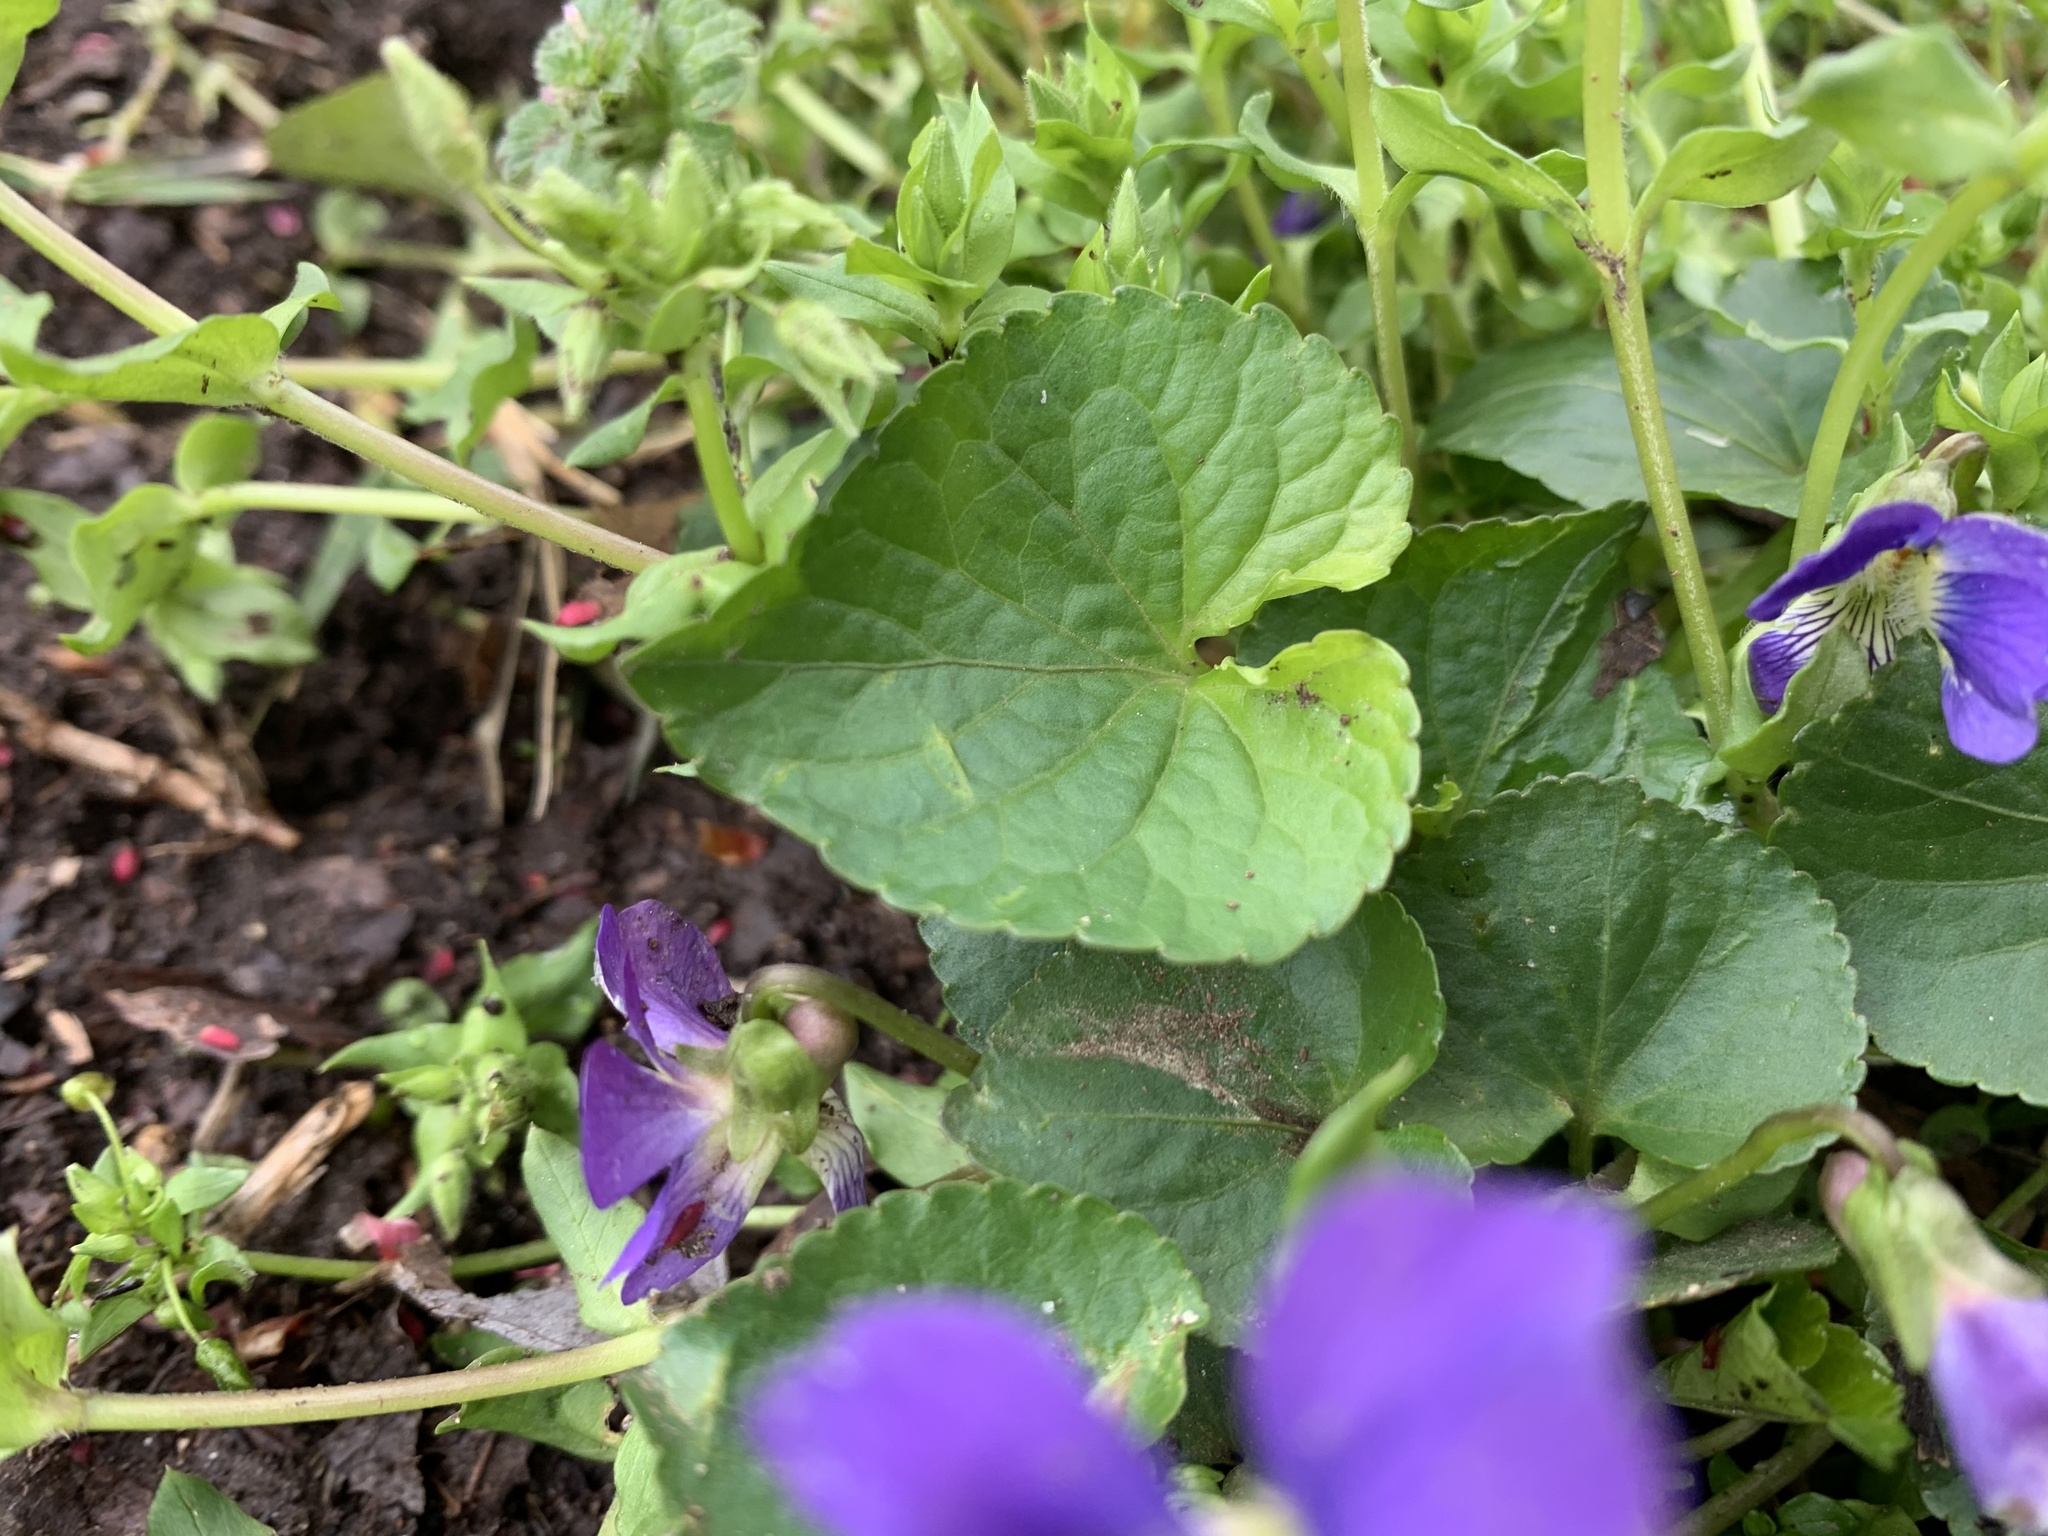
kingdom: Plantae
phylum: Tracheophyta
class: Magnoliopsida
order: Malpighiales
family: Violaceae
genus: Viola
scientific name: Viola sororia
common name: Dooryard violet
